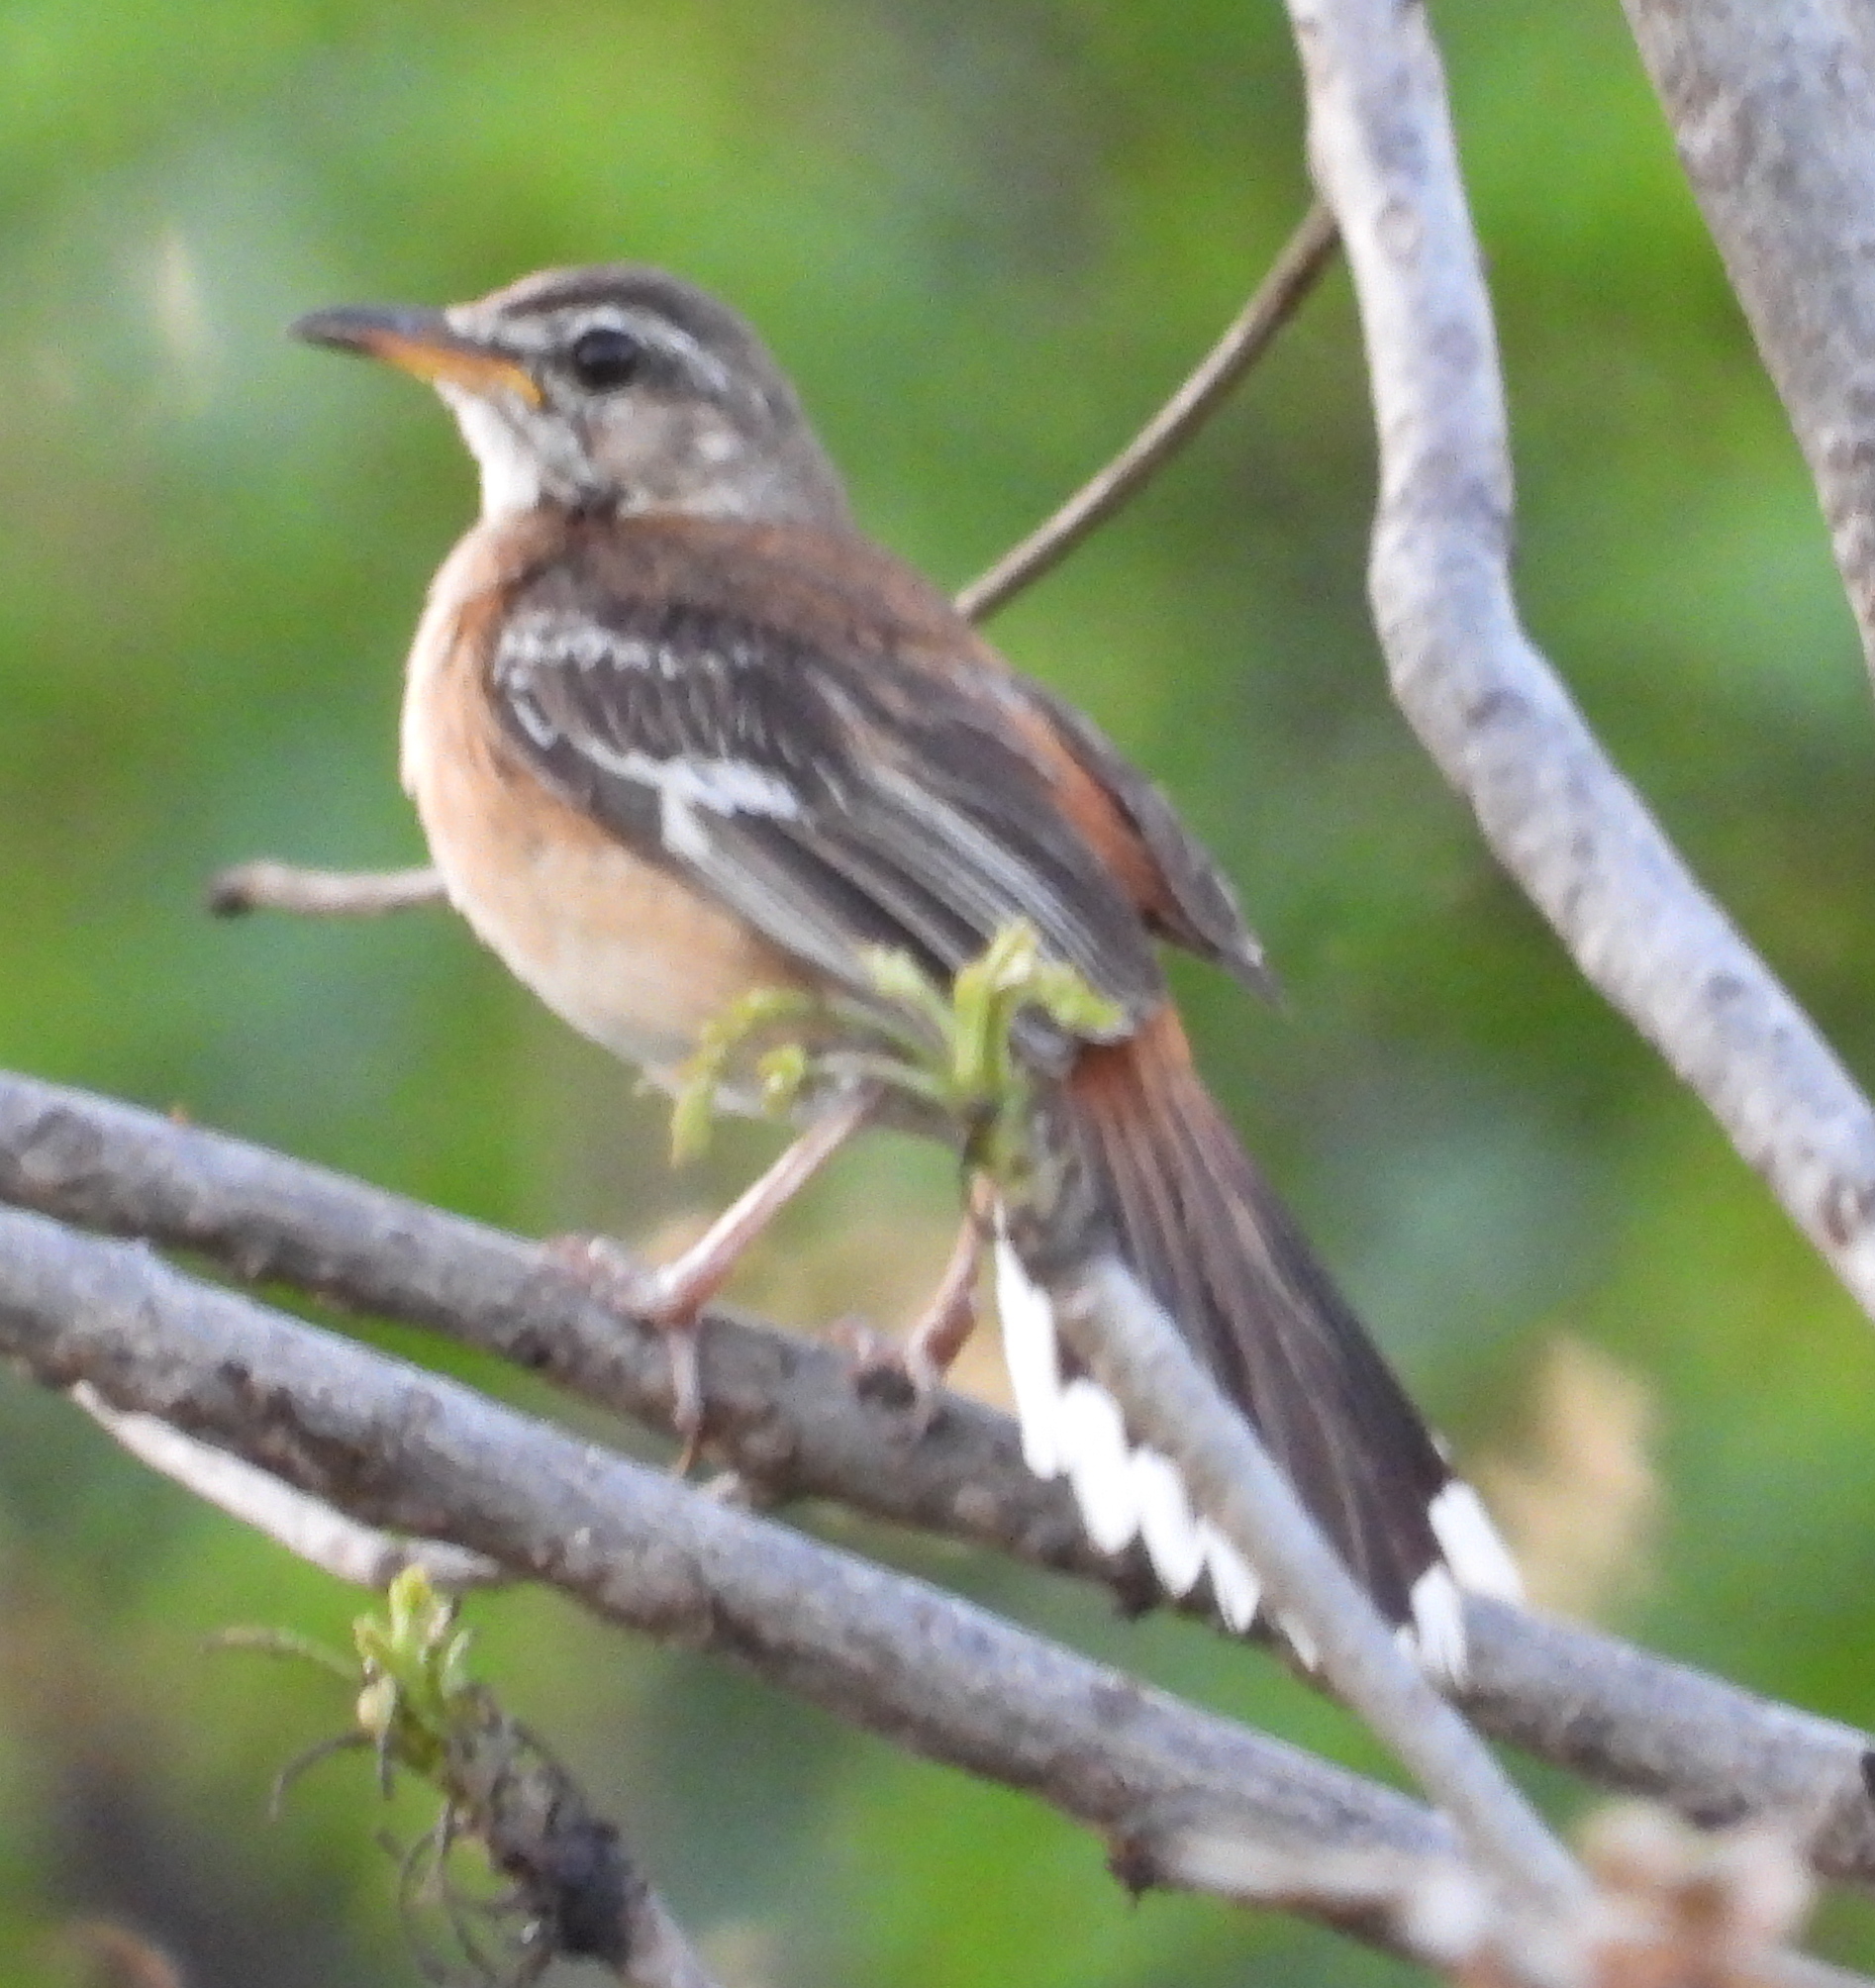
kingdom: Animalia
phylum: Chordata
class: Aves
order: Passeriformes
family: Muscicapidae
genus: Erythropygia
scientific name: Erythropygia leucophrys
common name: White-browed scrub robin
